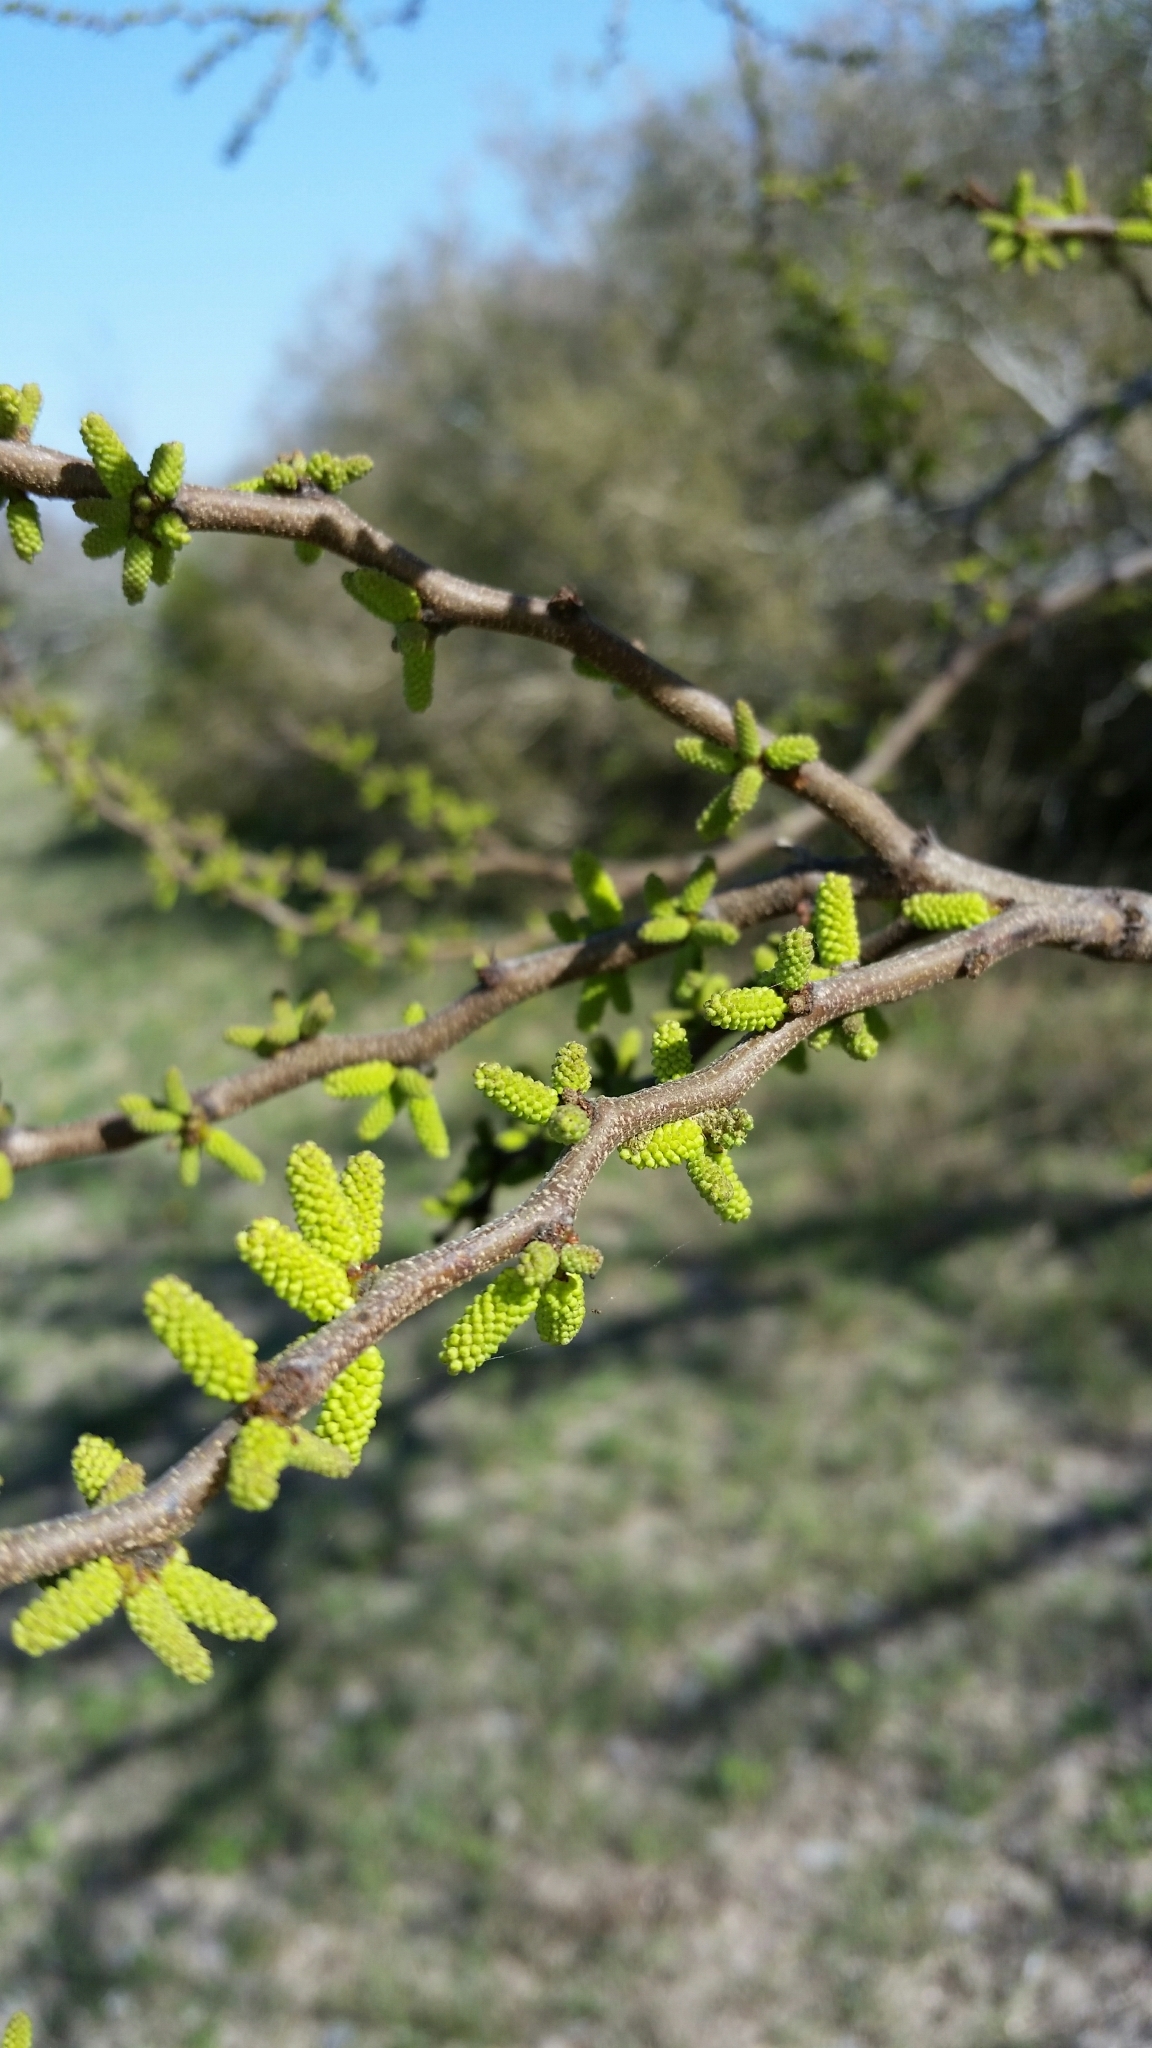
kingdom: Plantae
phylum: Tracheophyta
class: Magnoliopsida
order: Fabales
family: Fabaceae
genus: Vachellia
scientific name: Vachellia rigidula
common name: Blackbrush
